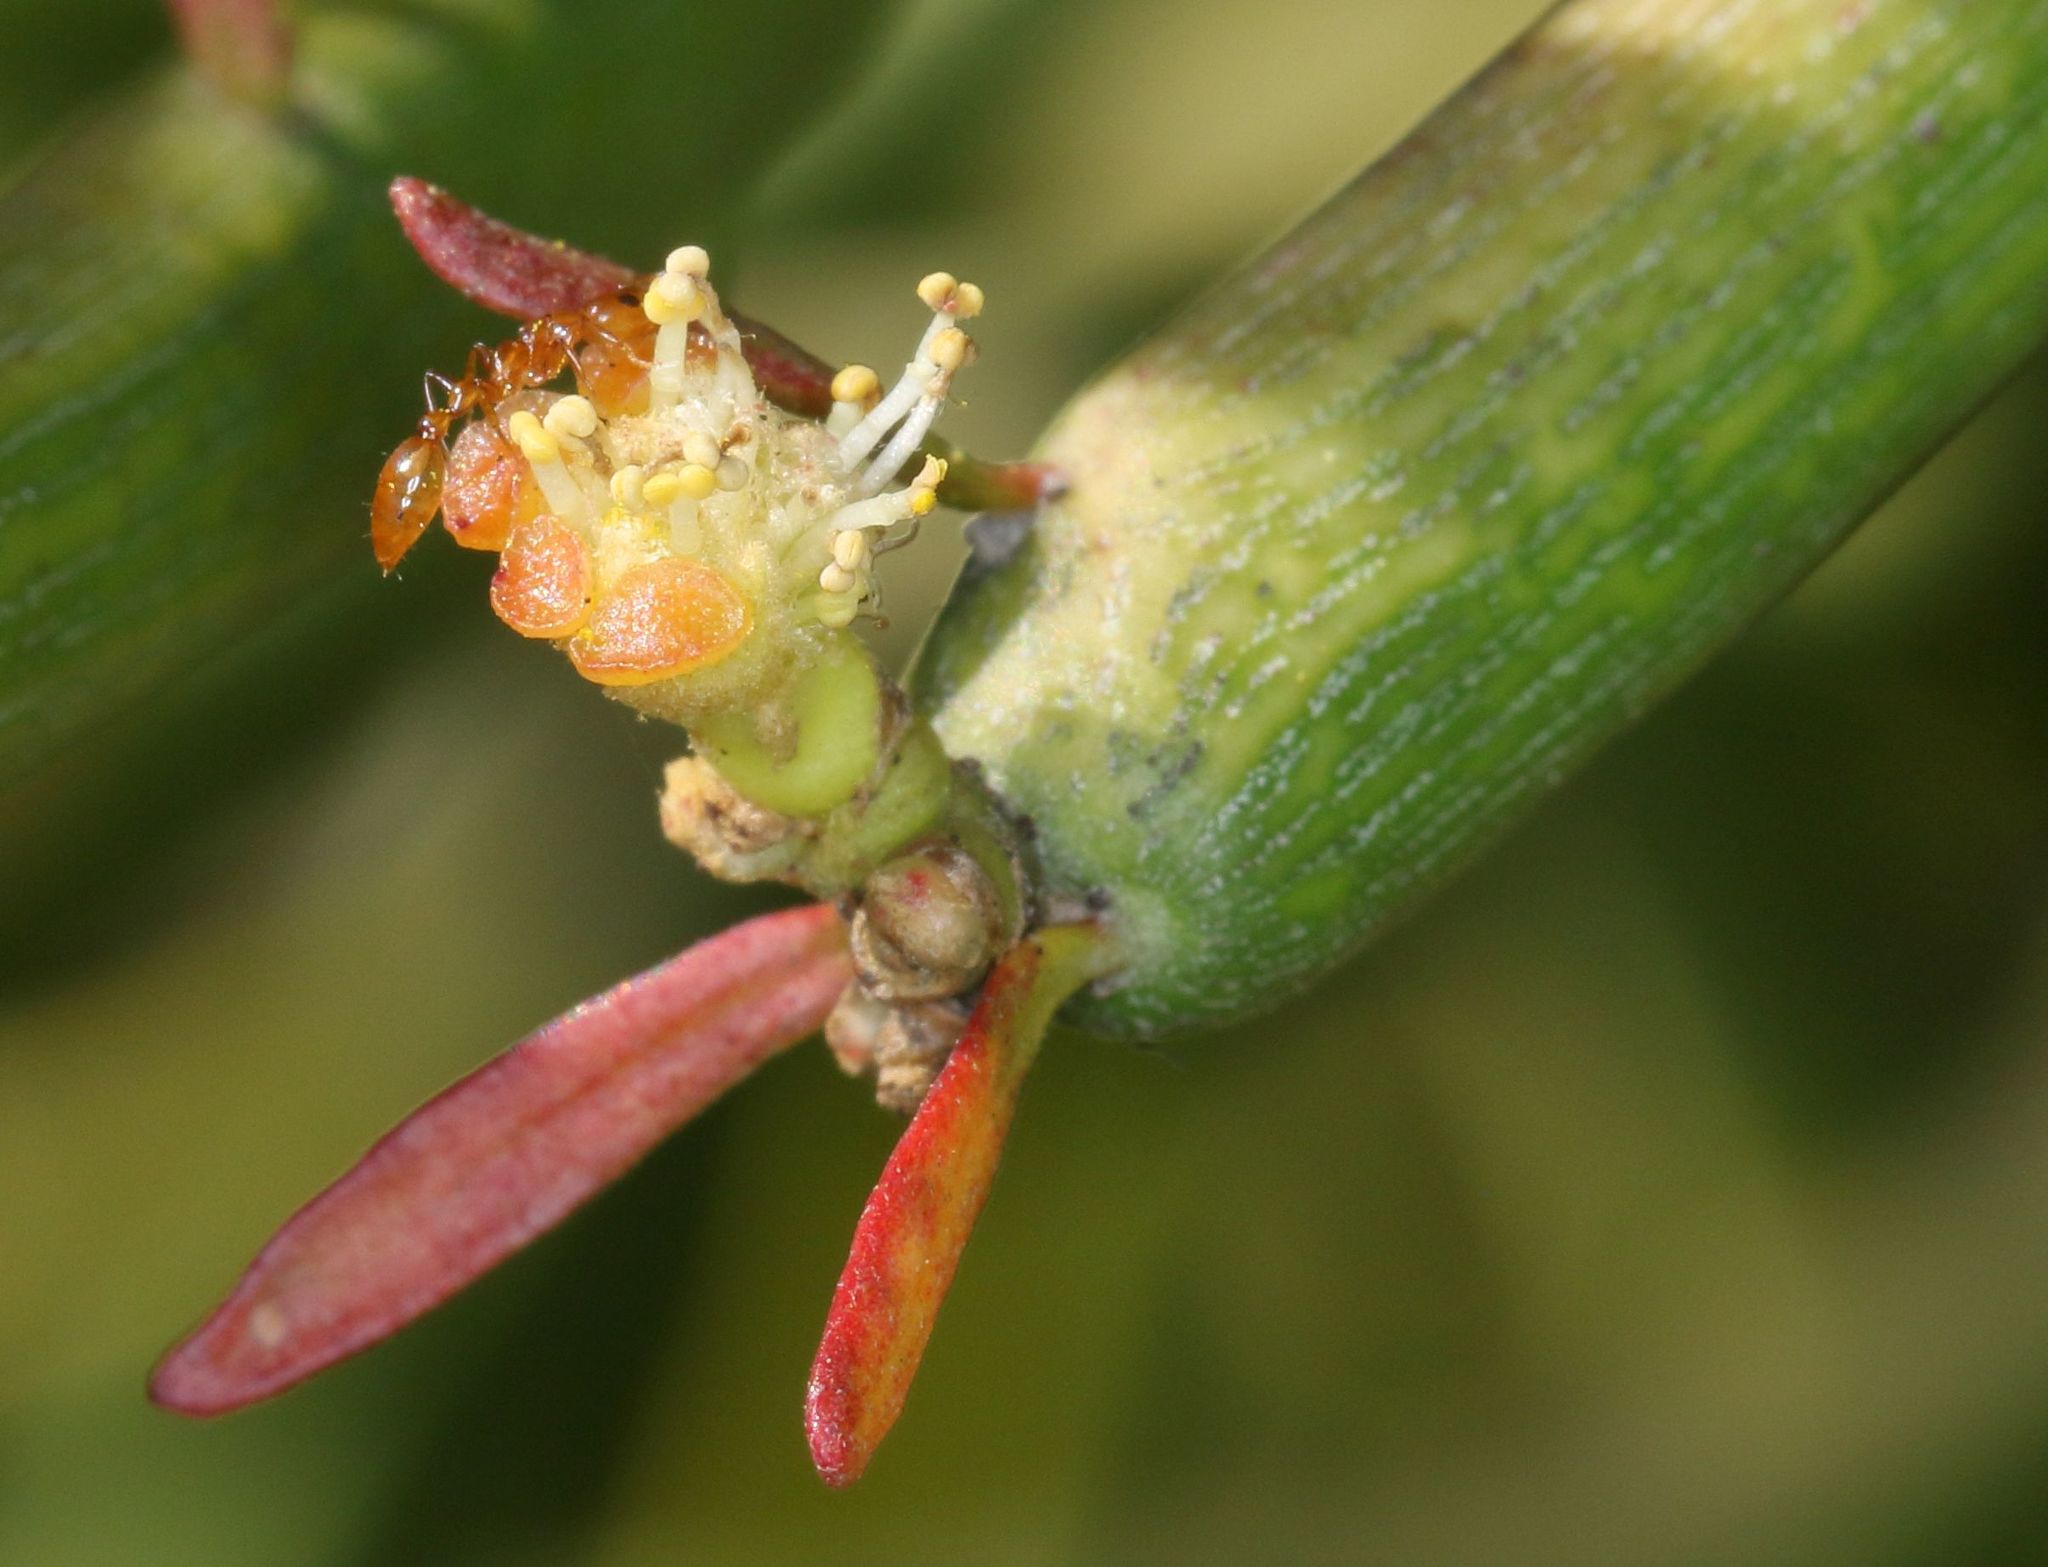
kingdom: Animalia
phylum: Arthropoda
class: Insecta
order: Hymenoptera
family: Formicidae
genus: Tetraponera
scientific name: Tetraponera emeryi
